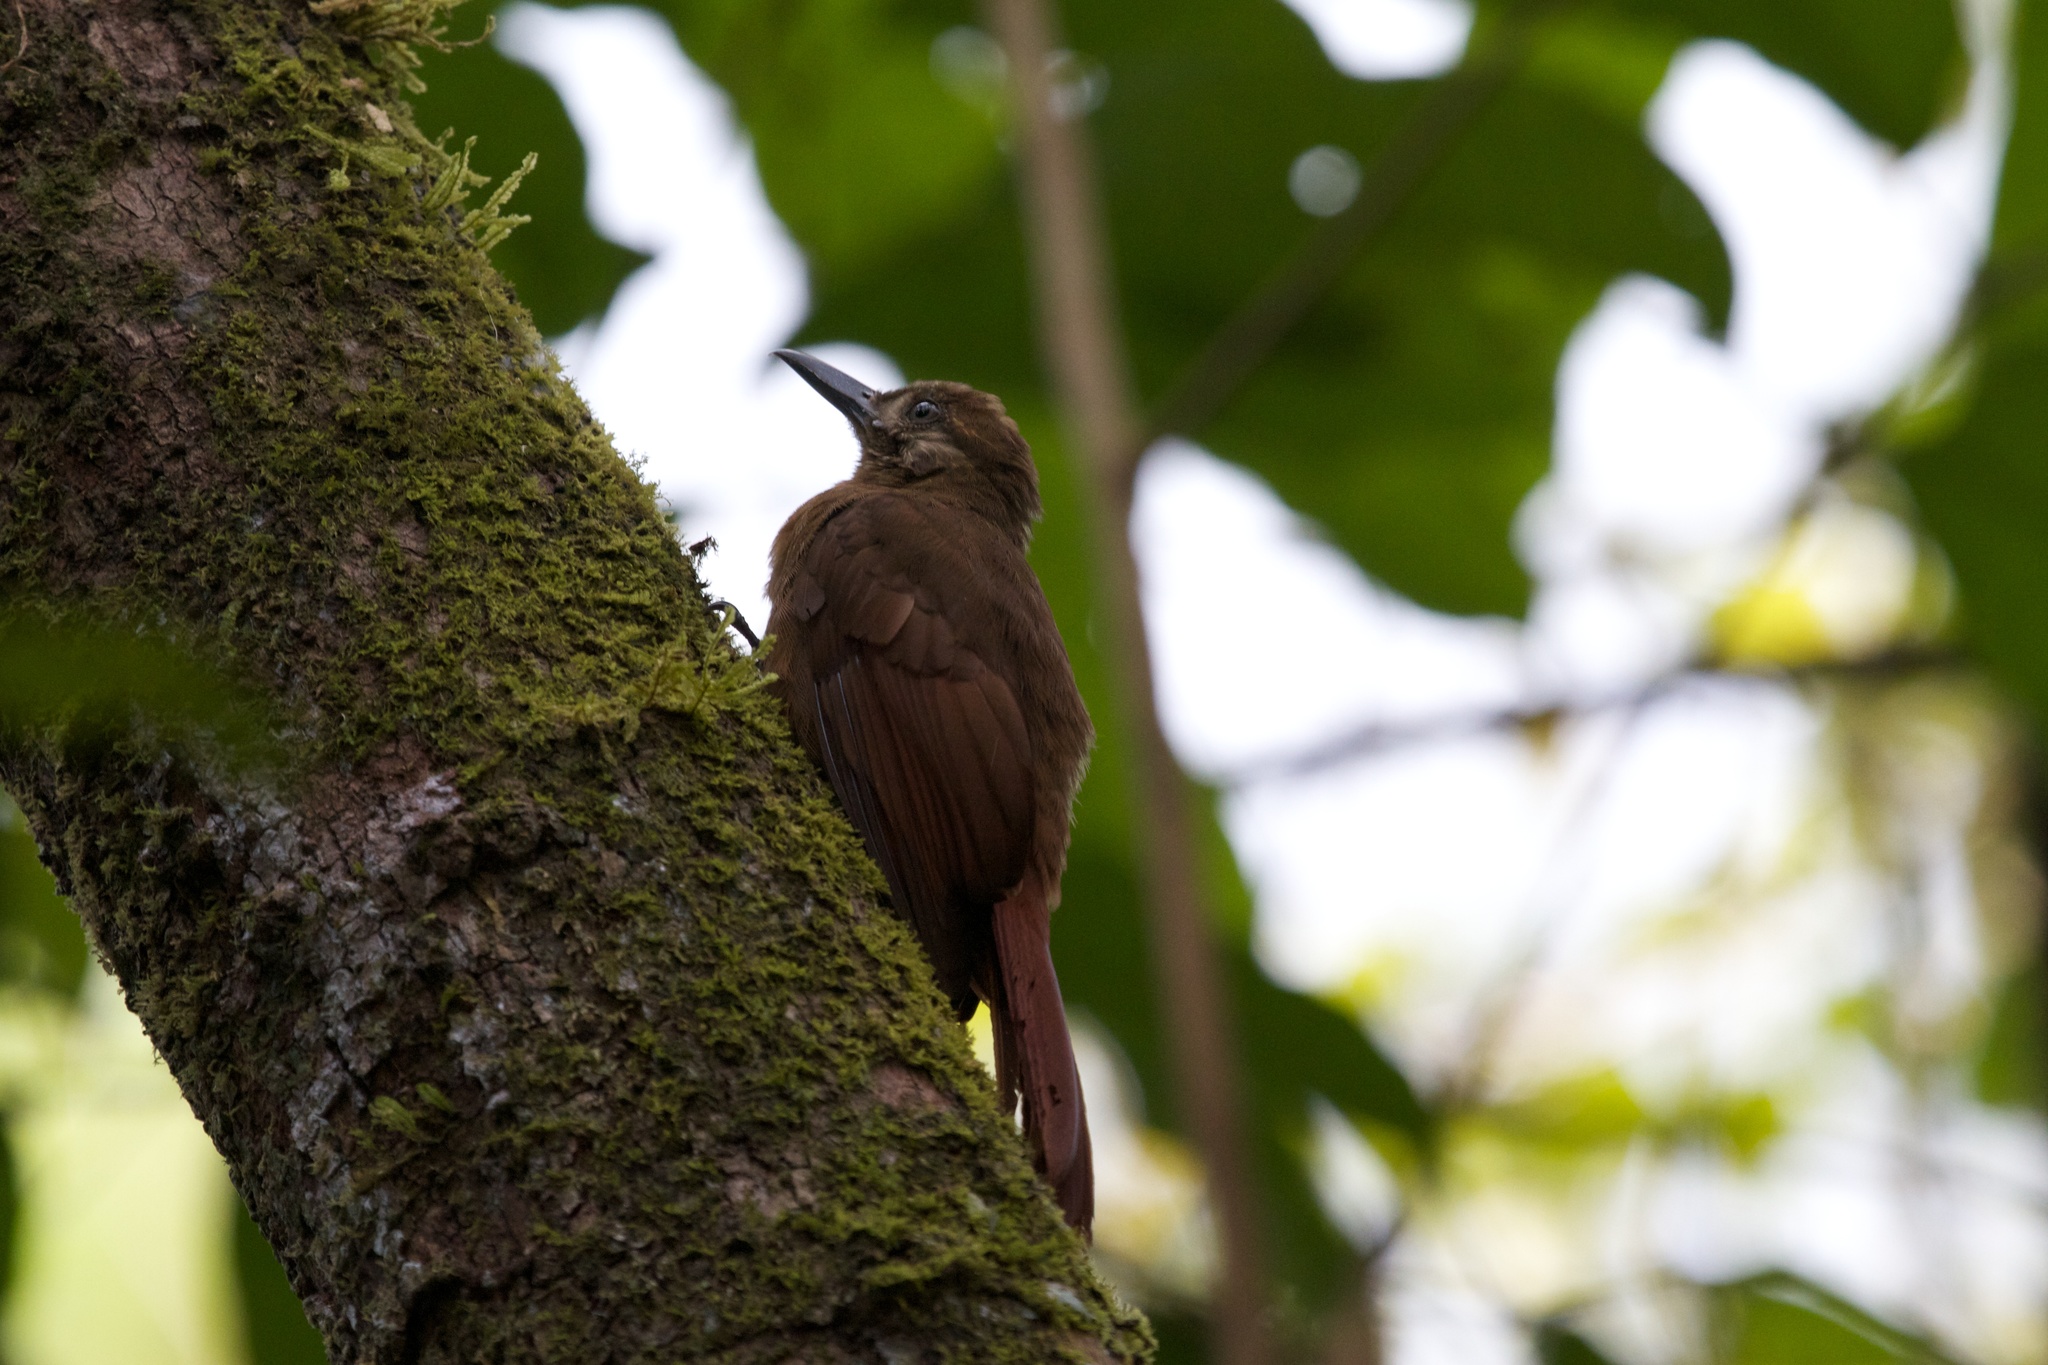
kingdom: Animalia
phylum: Chordata
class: Aves
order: Passeriformes
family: Furnariidae
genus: Dendrocincla
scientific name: Dendrocincla fuliginosa
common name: Plain-brown woodcreeper
